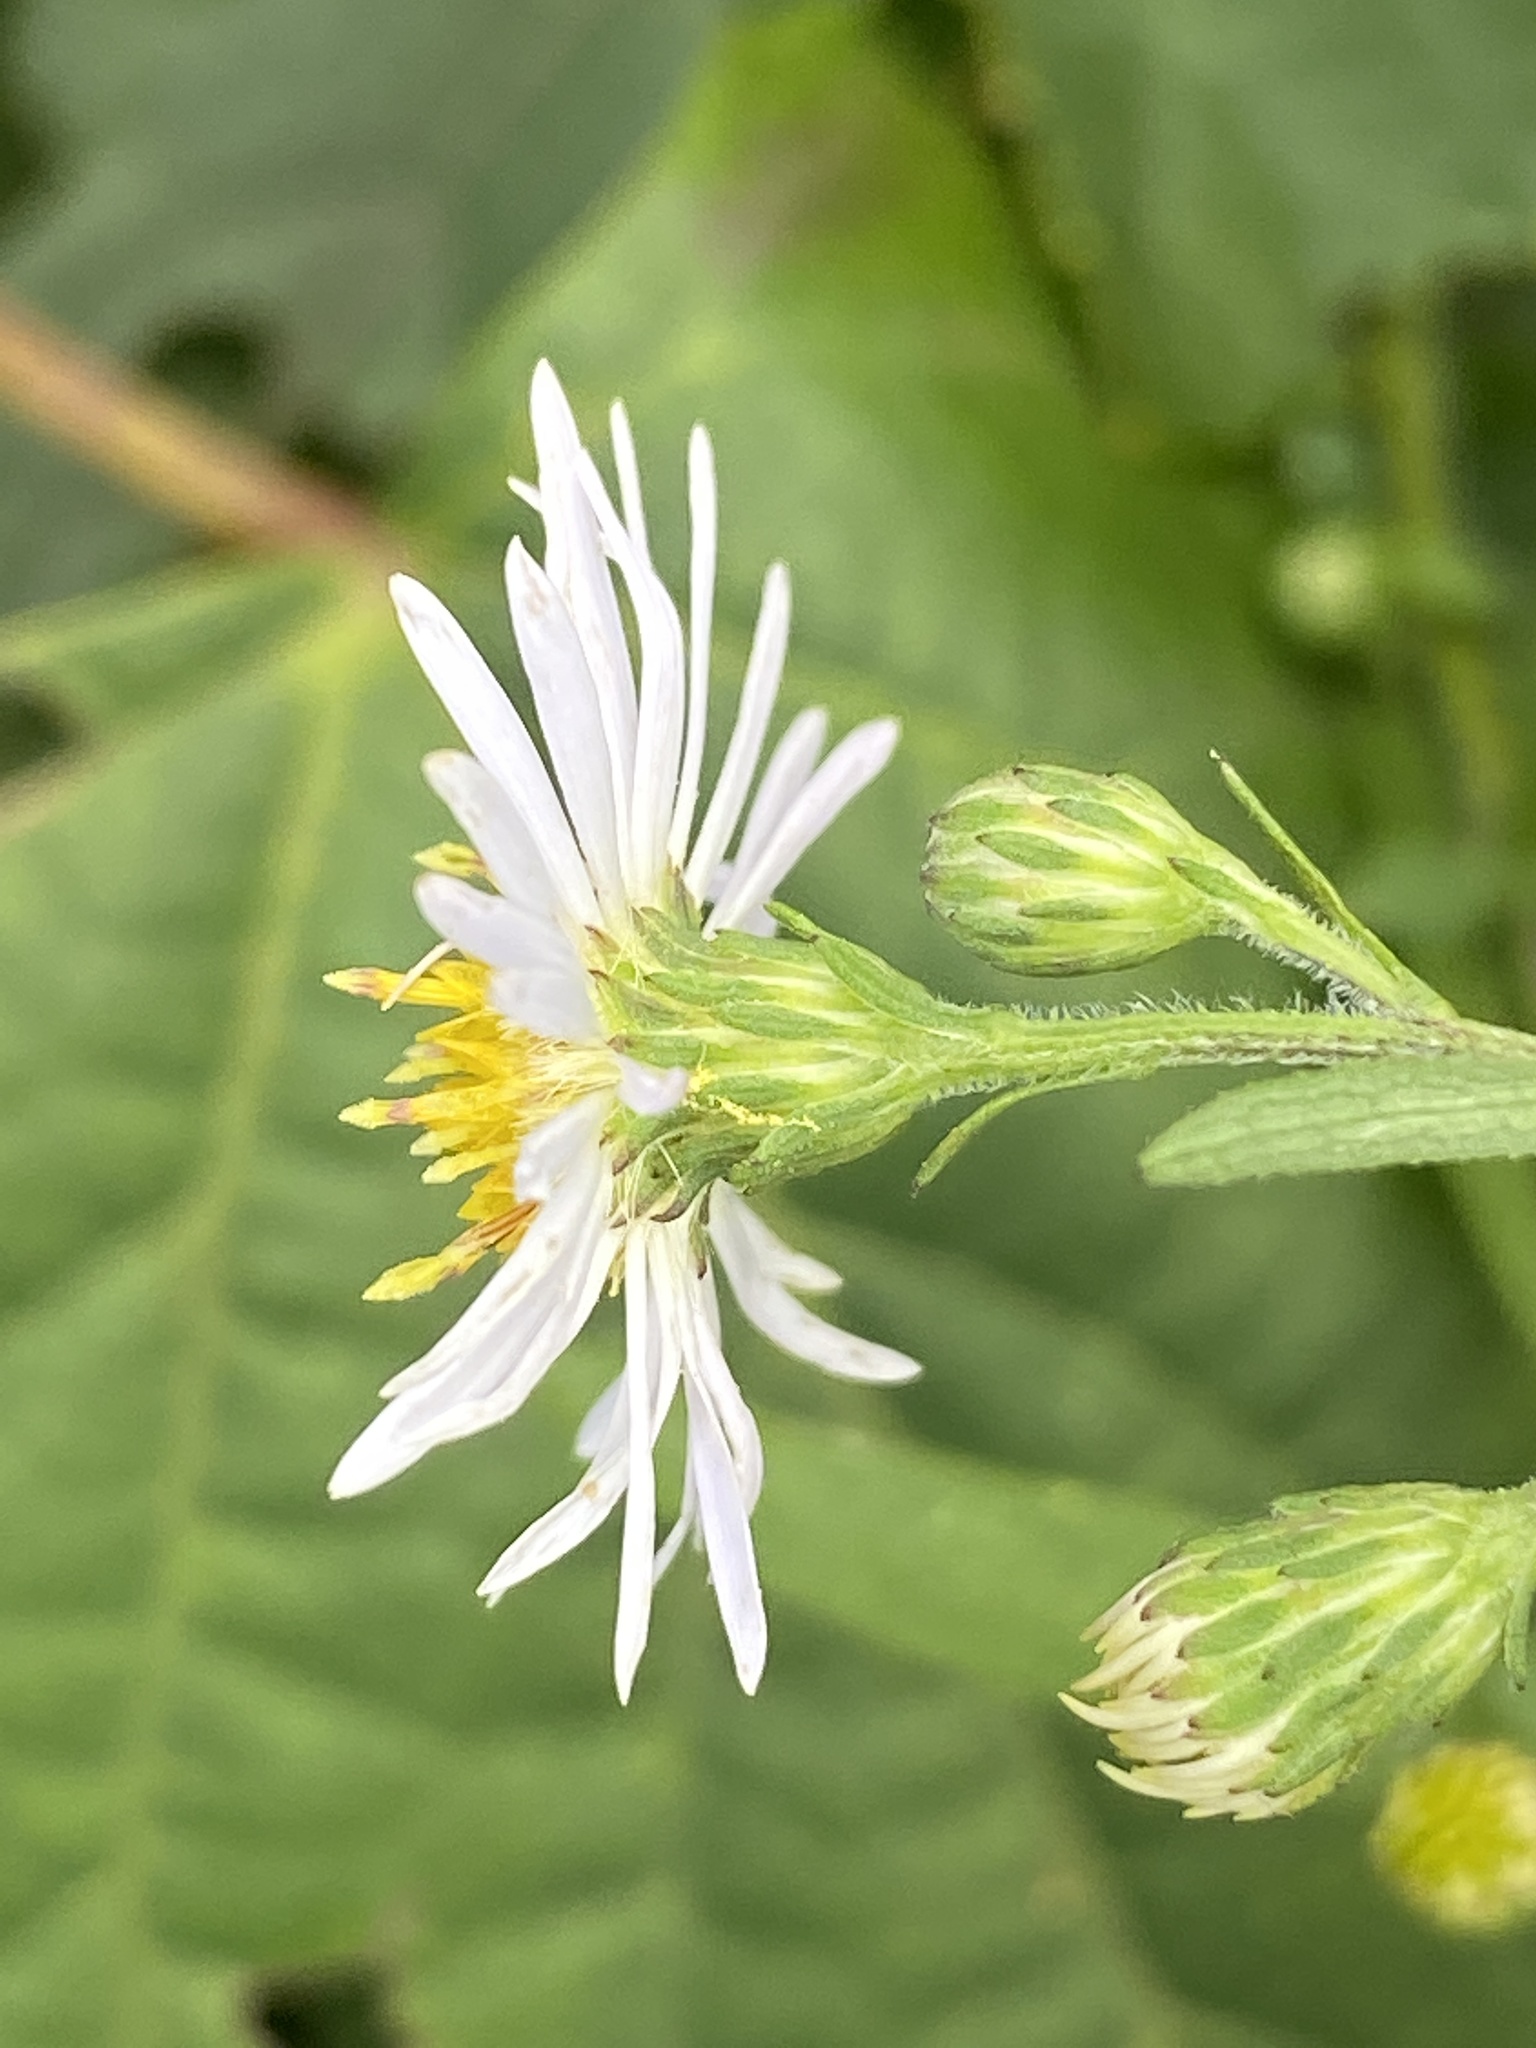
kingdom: Plantae
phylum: Tracheophyta
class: Magnoliopsida
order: Asterales
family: Asteraceae
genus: Symphyotrichum
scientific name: Symphyotrichum lanceolatum
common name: Panicled aster
